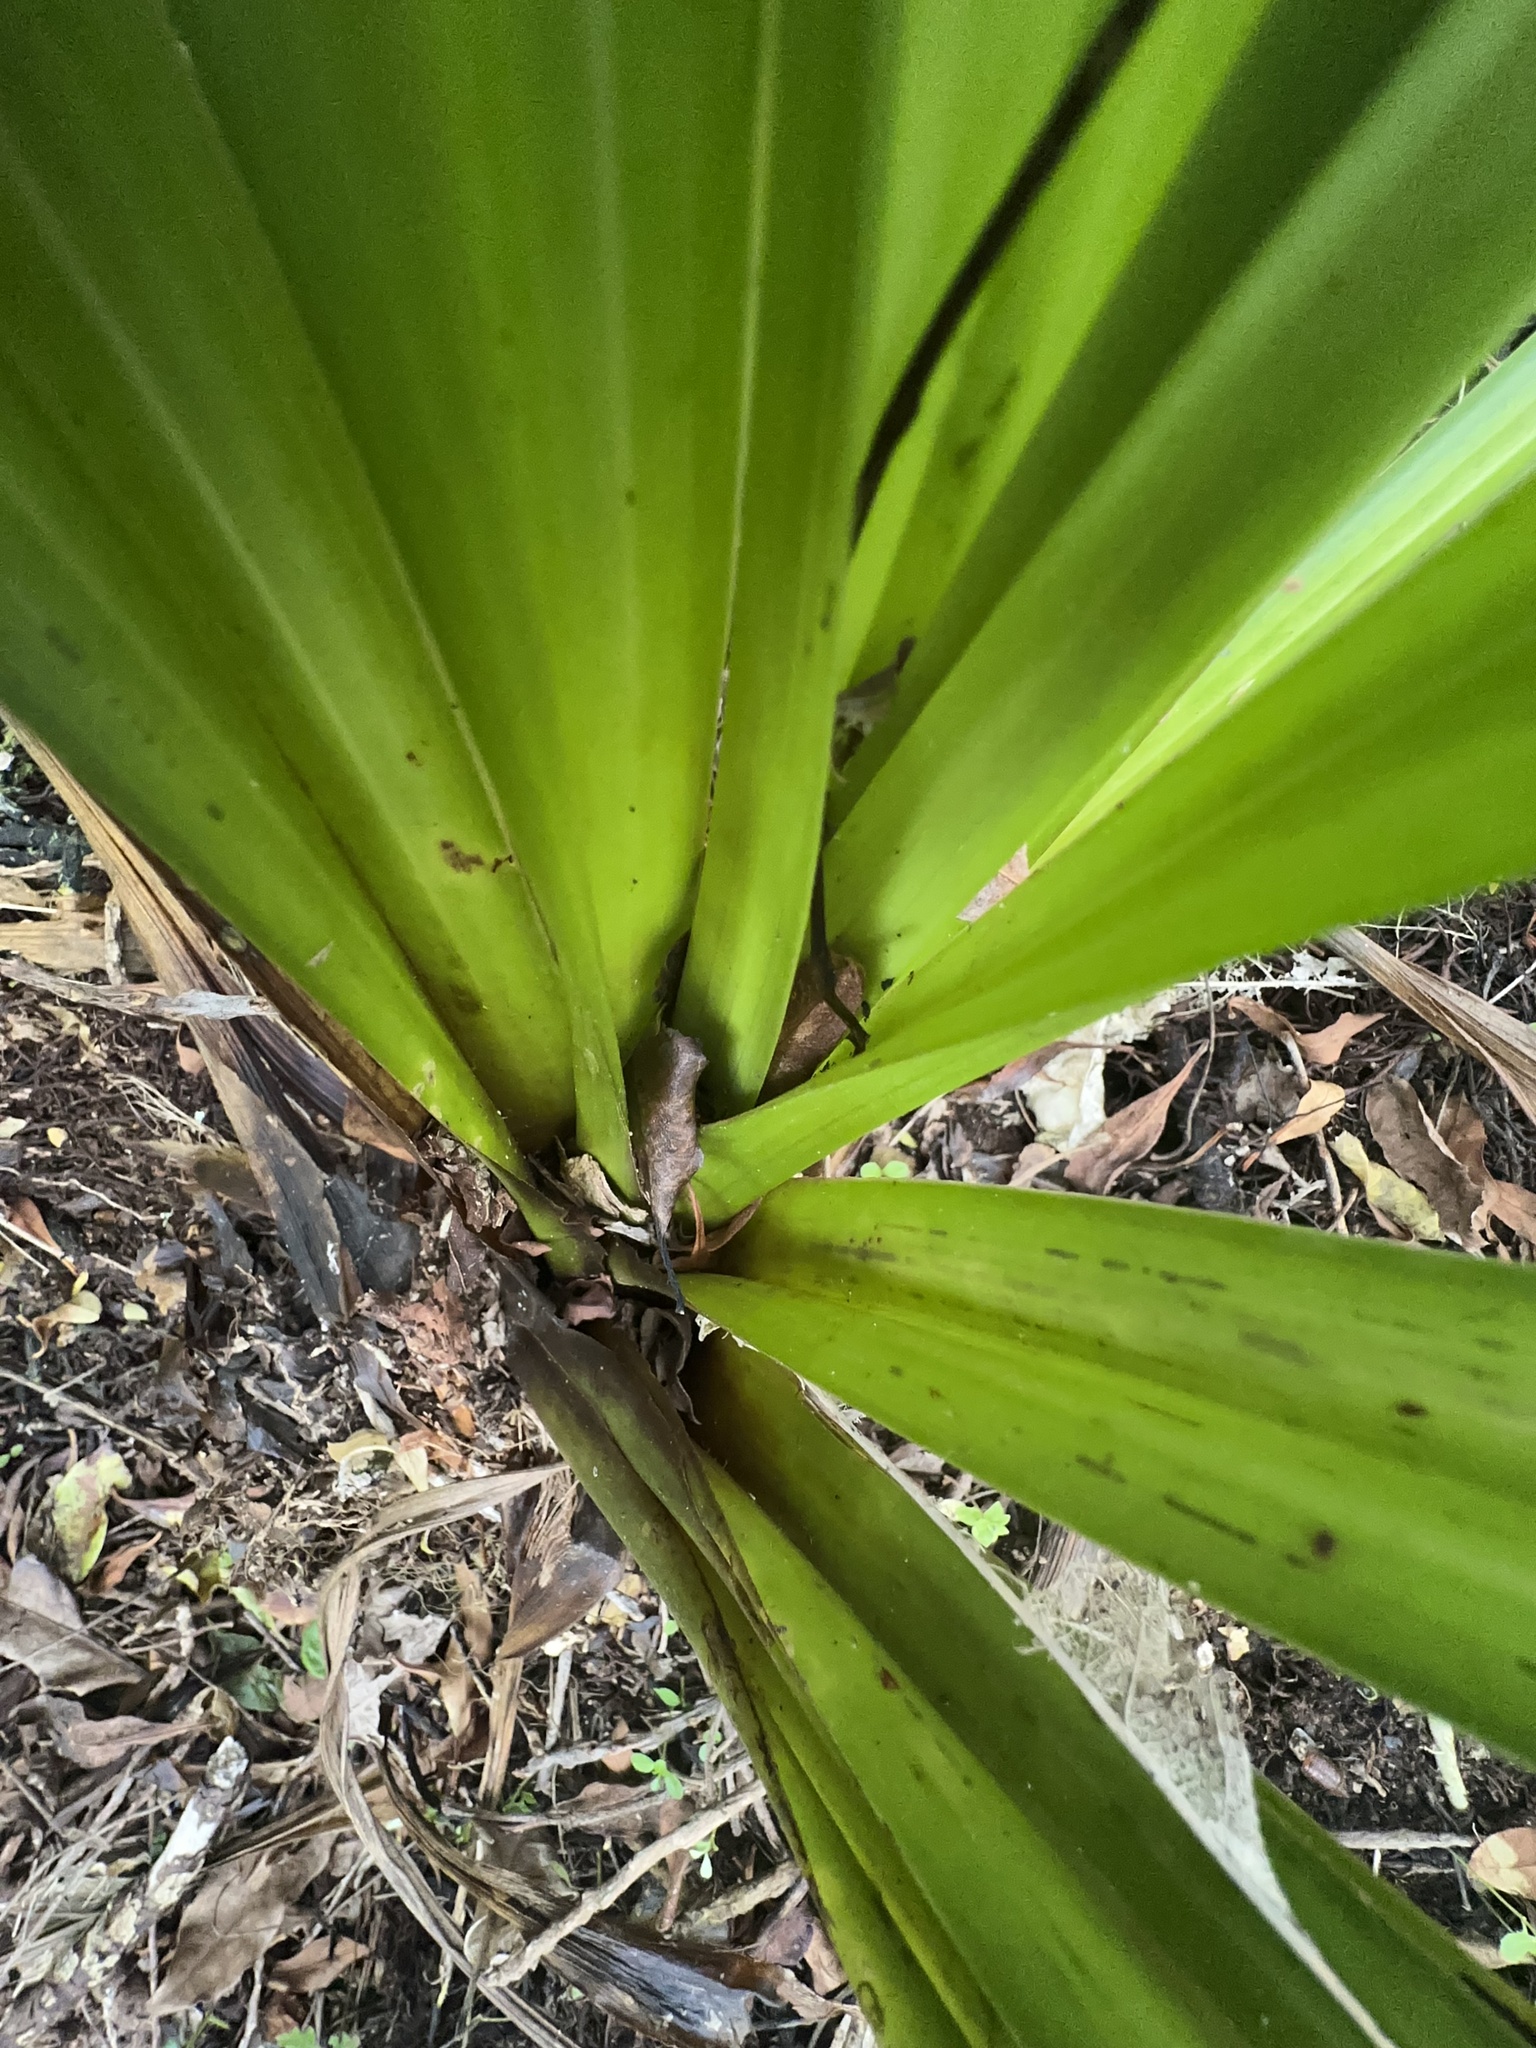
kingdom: Plantae
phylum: Tracheophyta
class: Liliopsida
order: Asparagales
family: Asteliaceae
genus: Astelia
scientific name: Astelia hastata
